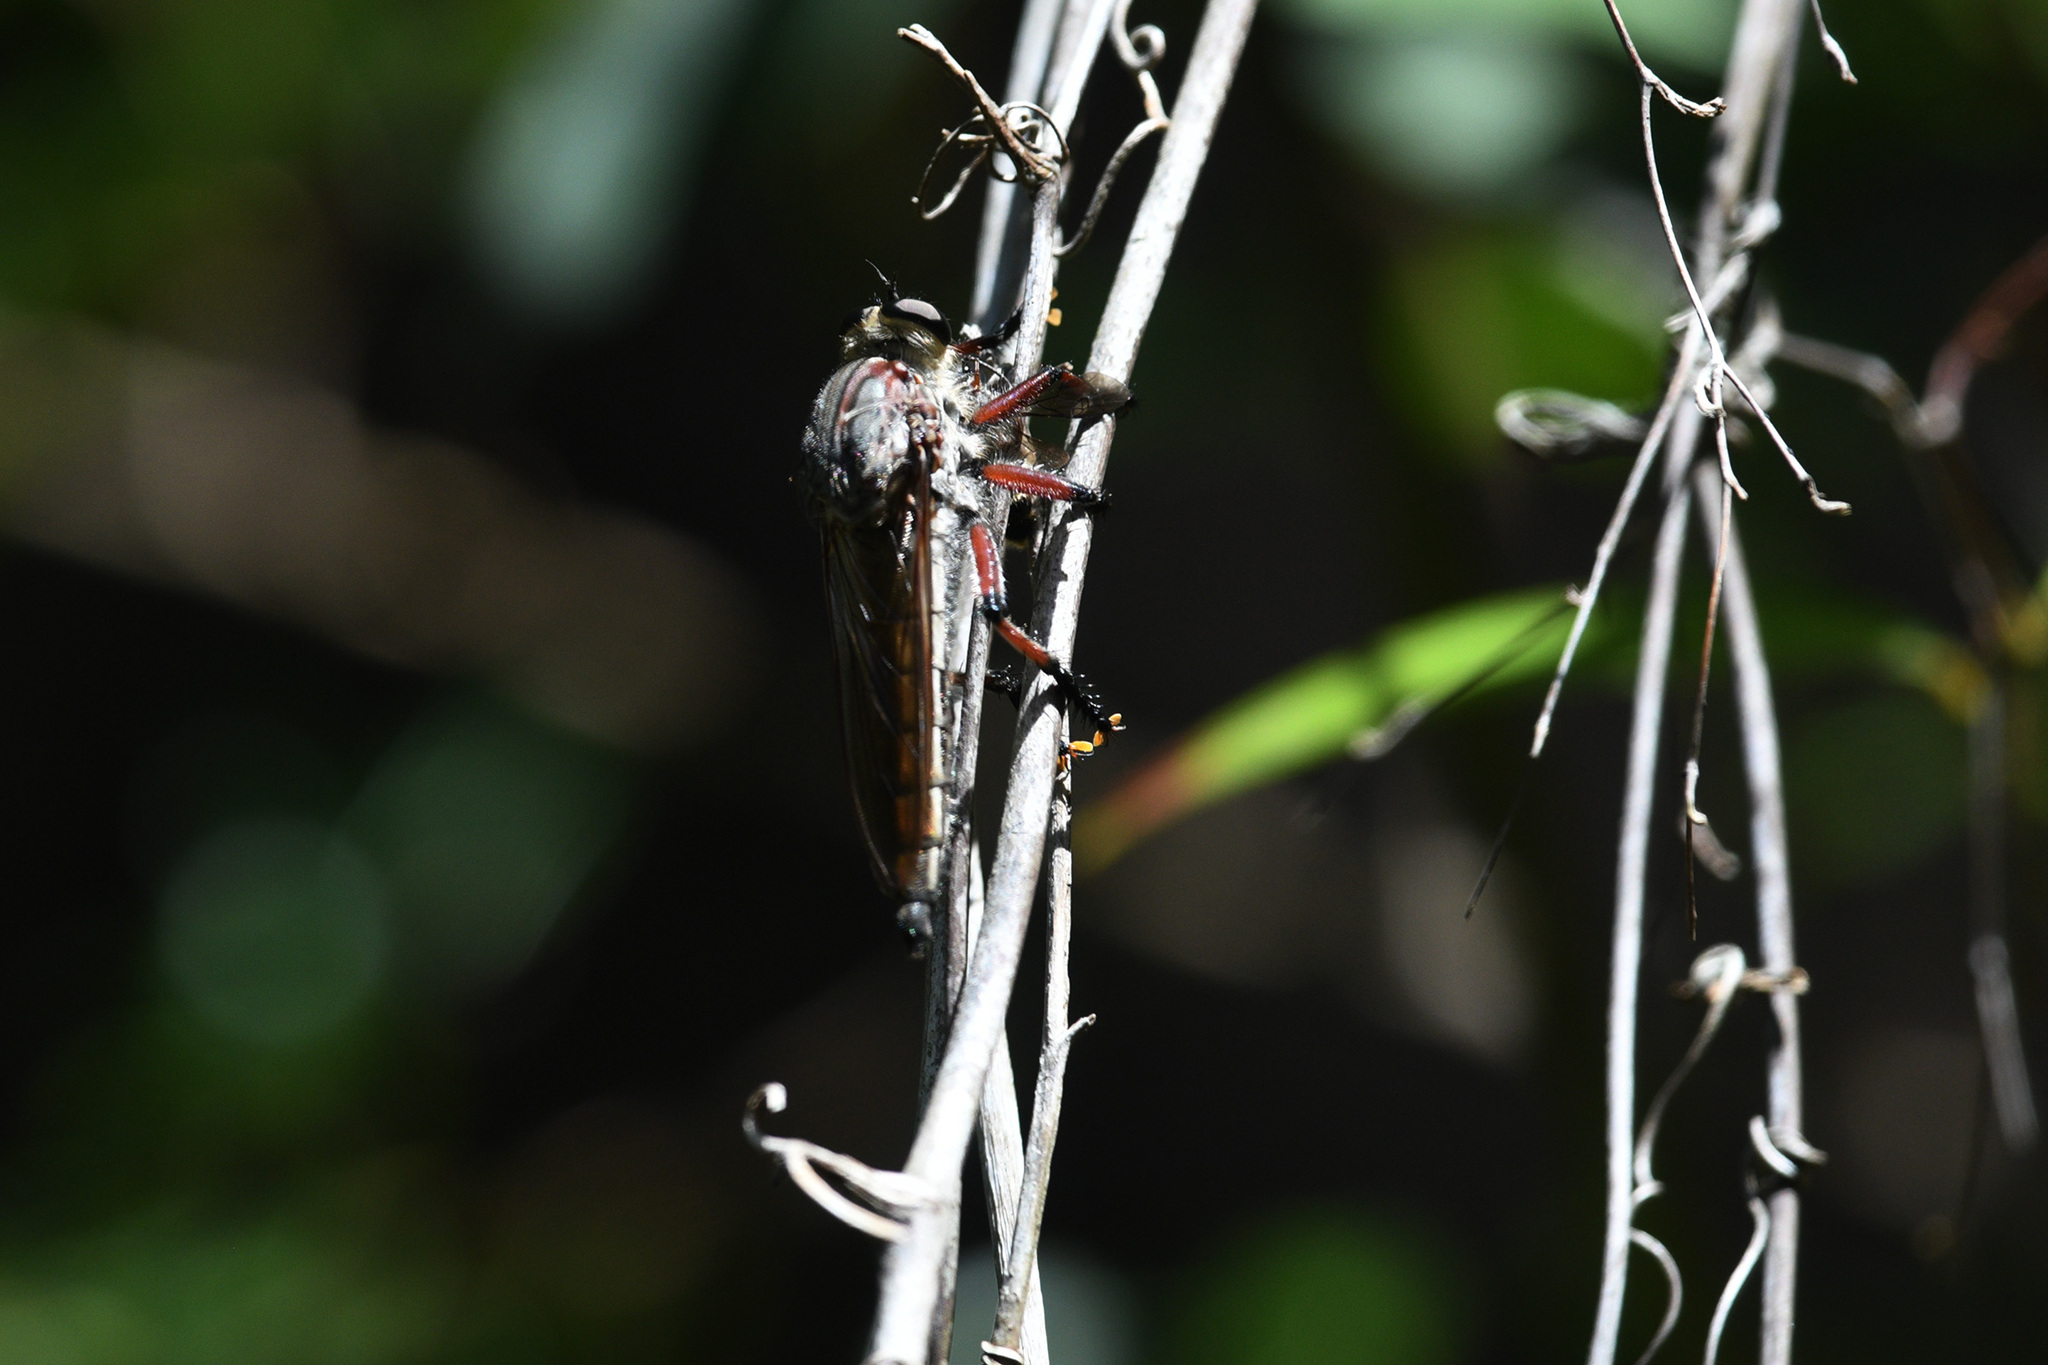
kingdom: Animalia
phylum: Arthropoda
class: Insecta
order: Diptera
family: Asilidae
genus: Neoaratus
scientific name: Neoaratus hercules
